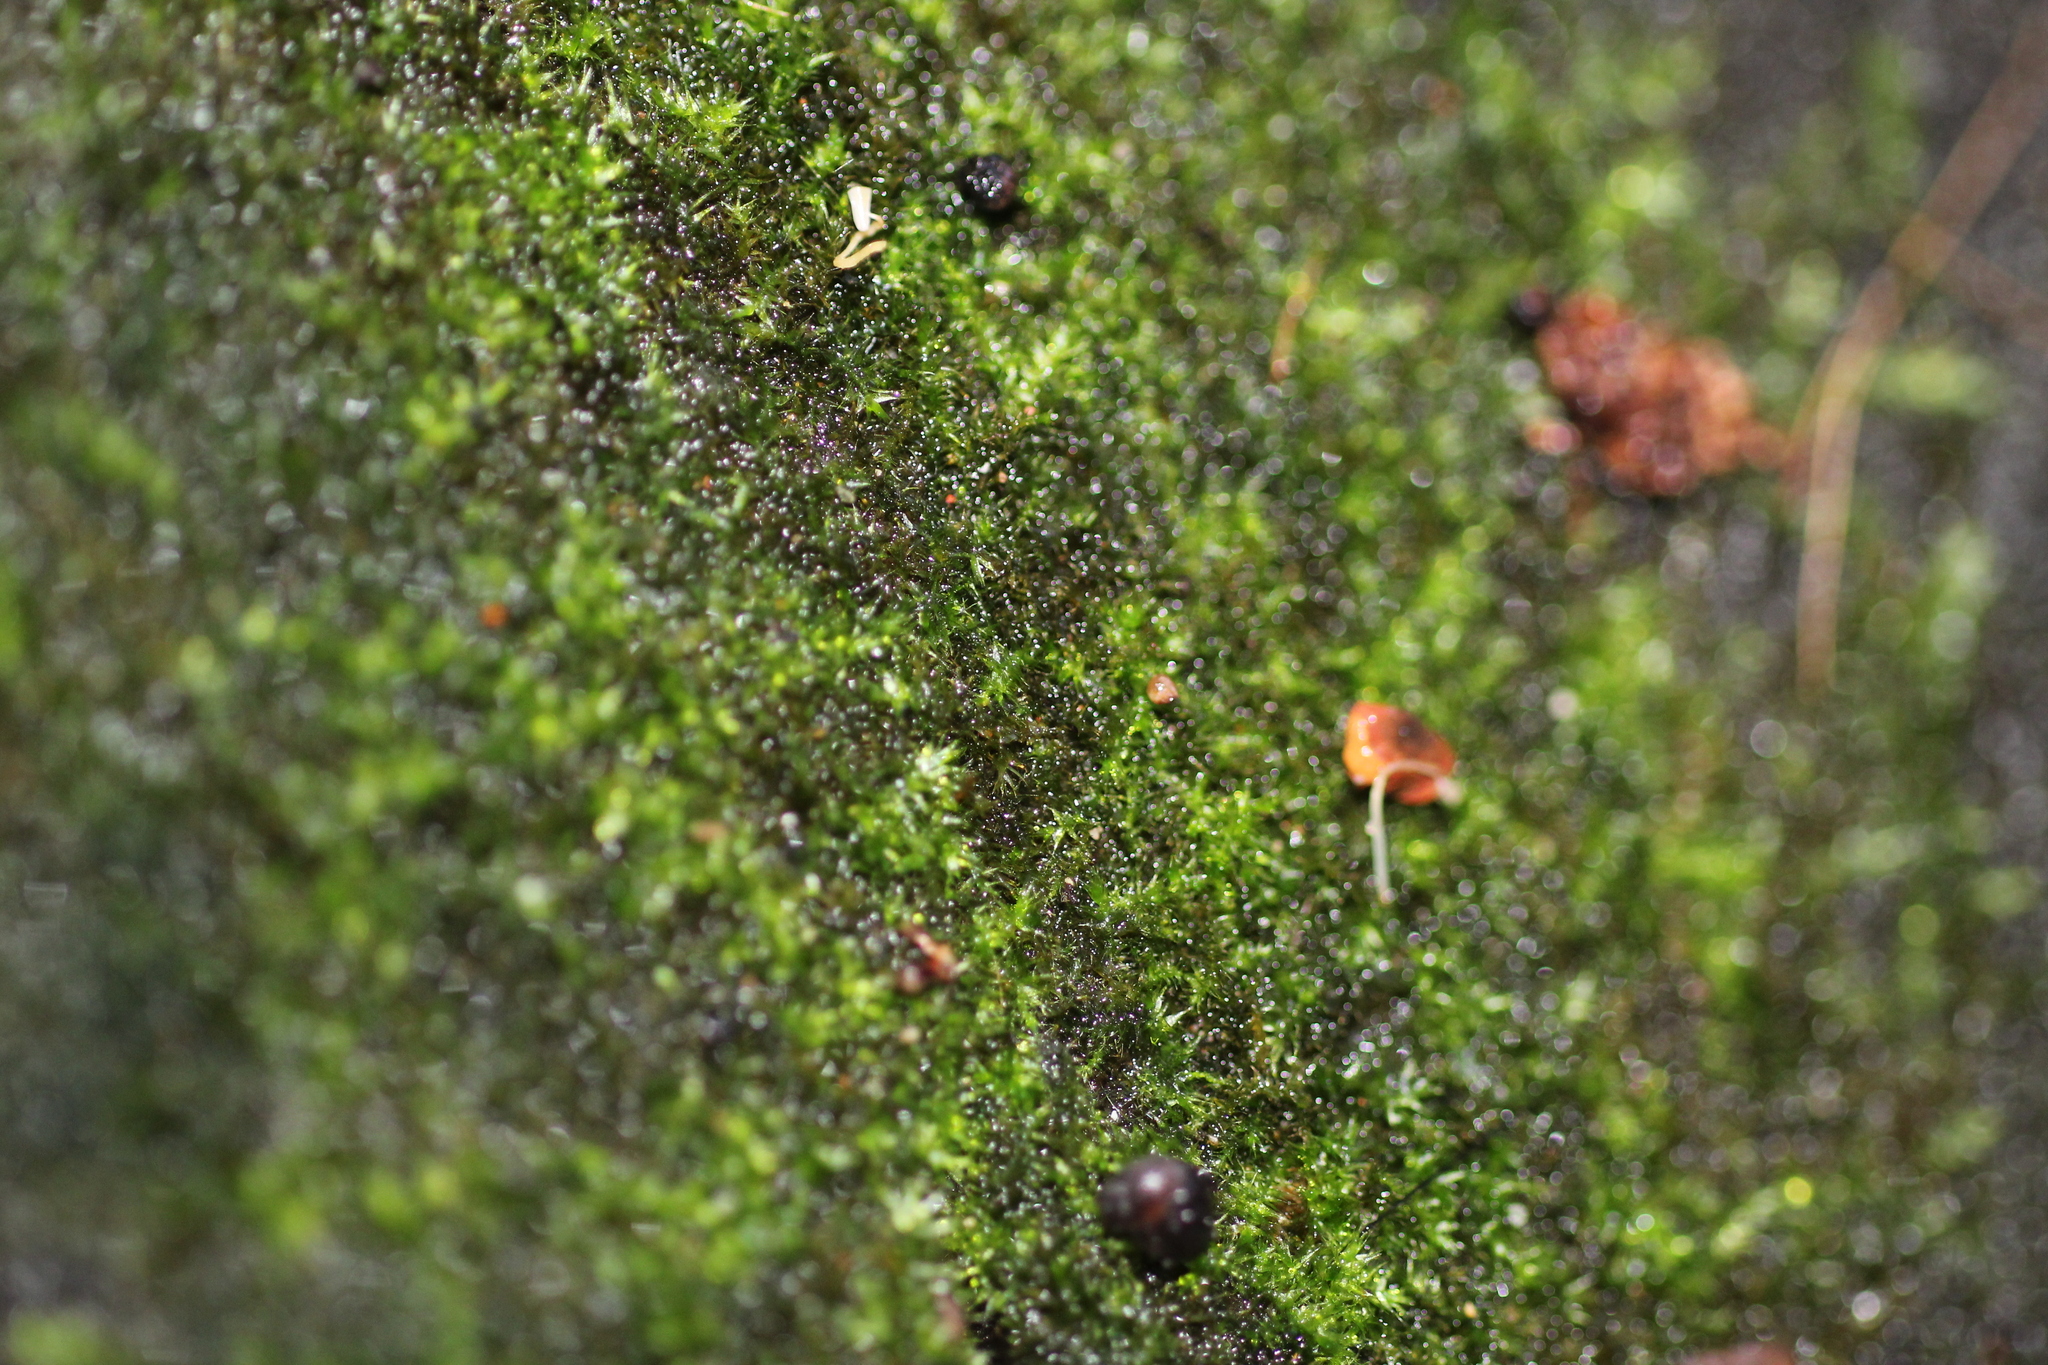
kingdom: Plantae
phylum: Bryophyta
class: Bryopsida
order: Hypnodendrales
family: Racopilaceae
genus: Racopilum
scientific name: Racopilum cuspidigerum
